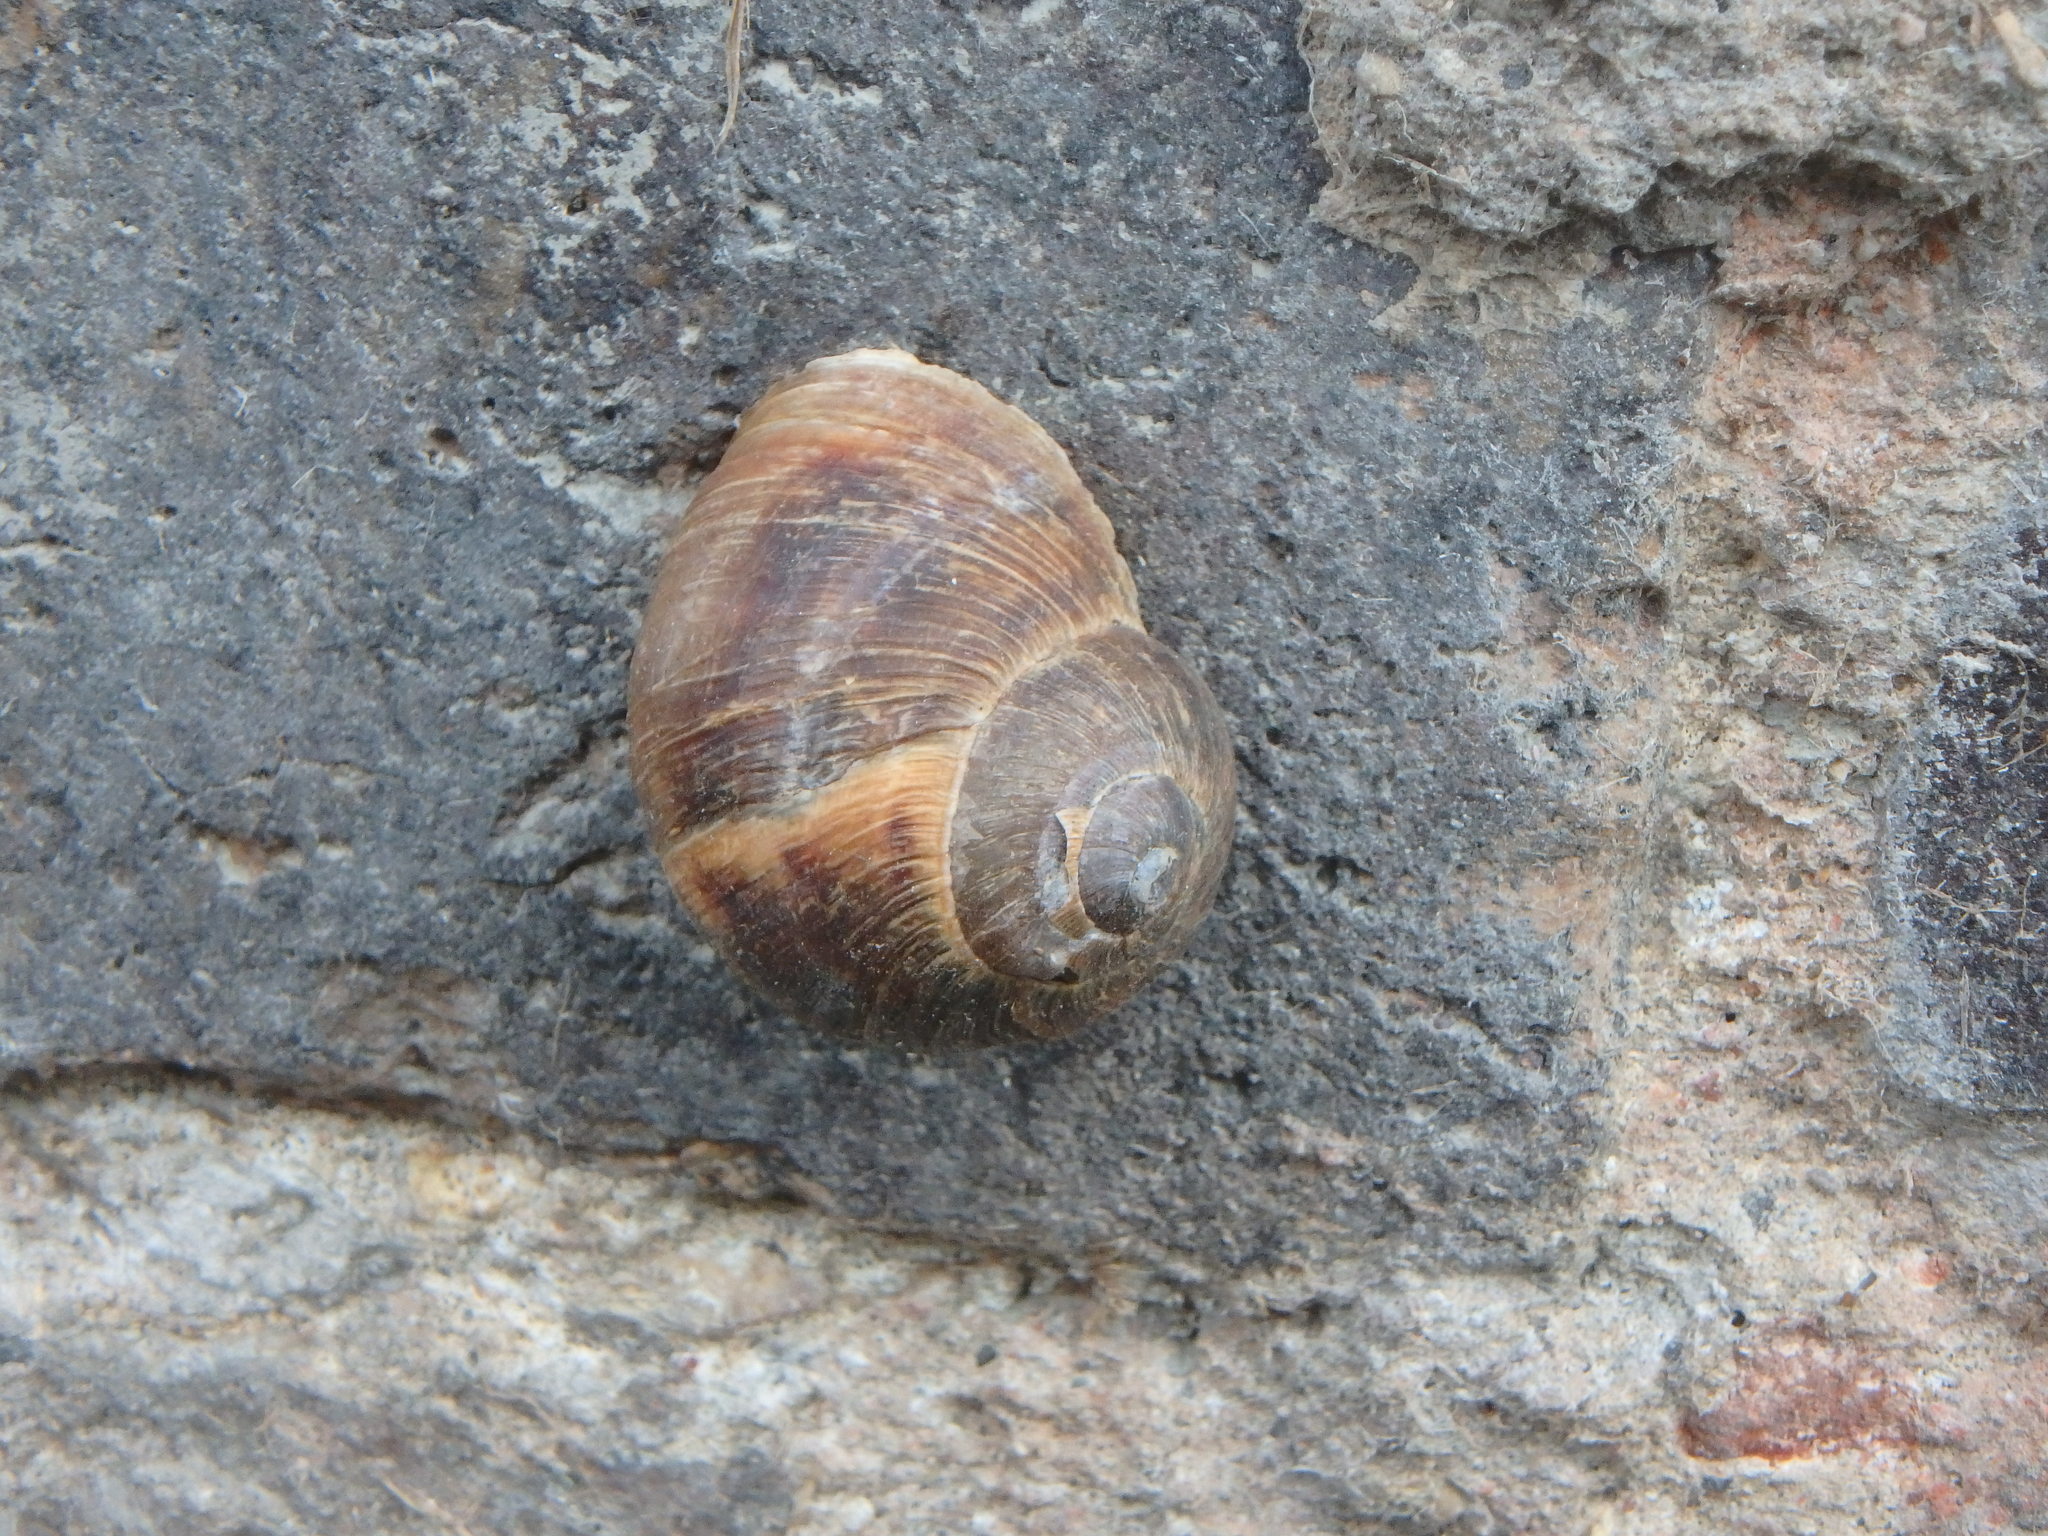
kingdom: Animalia
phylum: Mollusca
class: Gastropoda
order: Stylommatophora
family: Helicidae
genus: Cornu
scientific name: Cornu aspersum
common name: Brown garden snail
